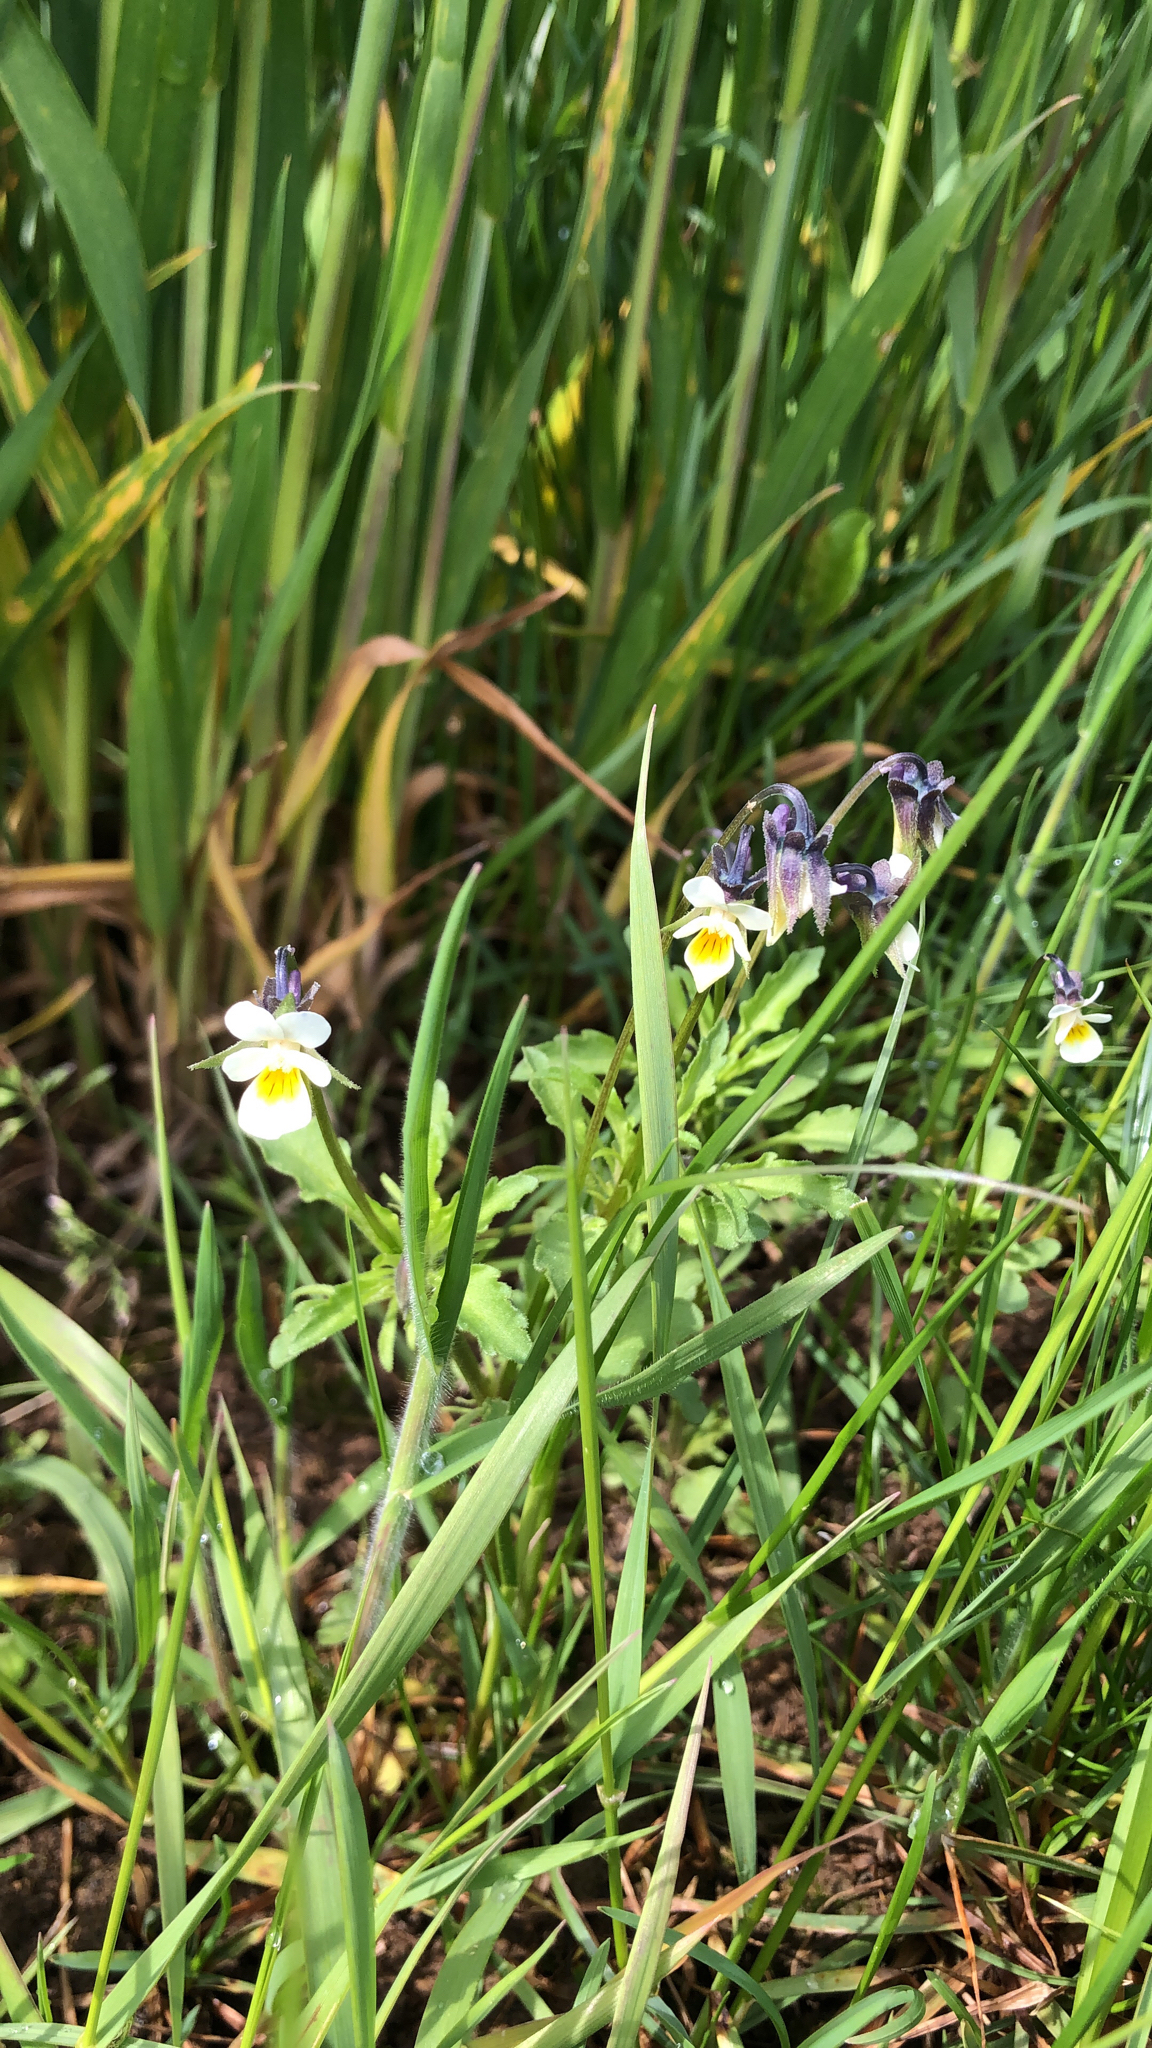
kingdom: Plantae
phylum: Tracheophyta
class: Magnoliopsida
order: Malpighiales
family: Violaceae
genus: Viola
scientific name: Viola arvensis
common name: Field pansy
